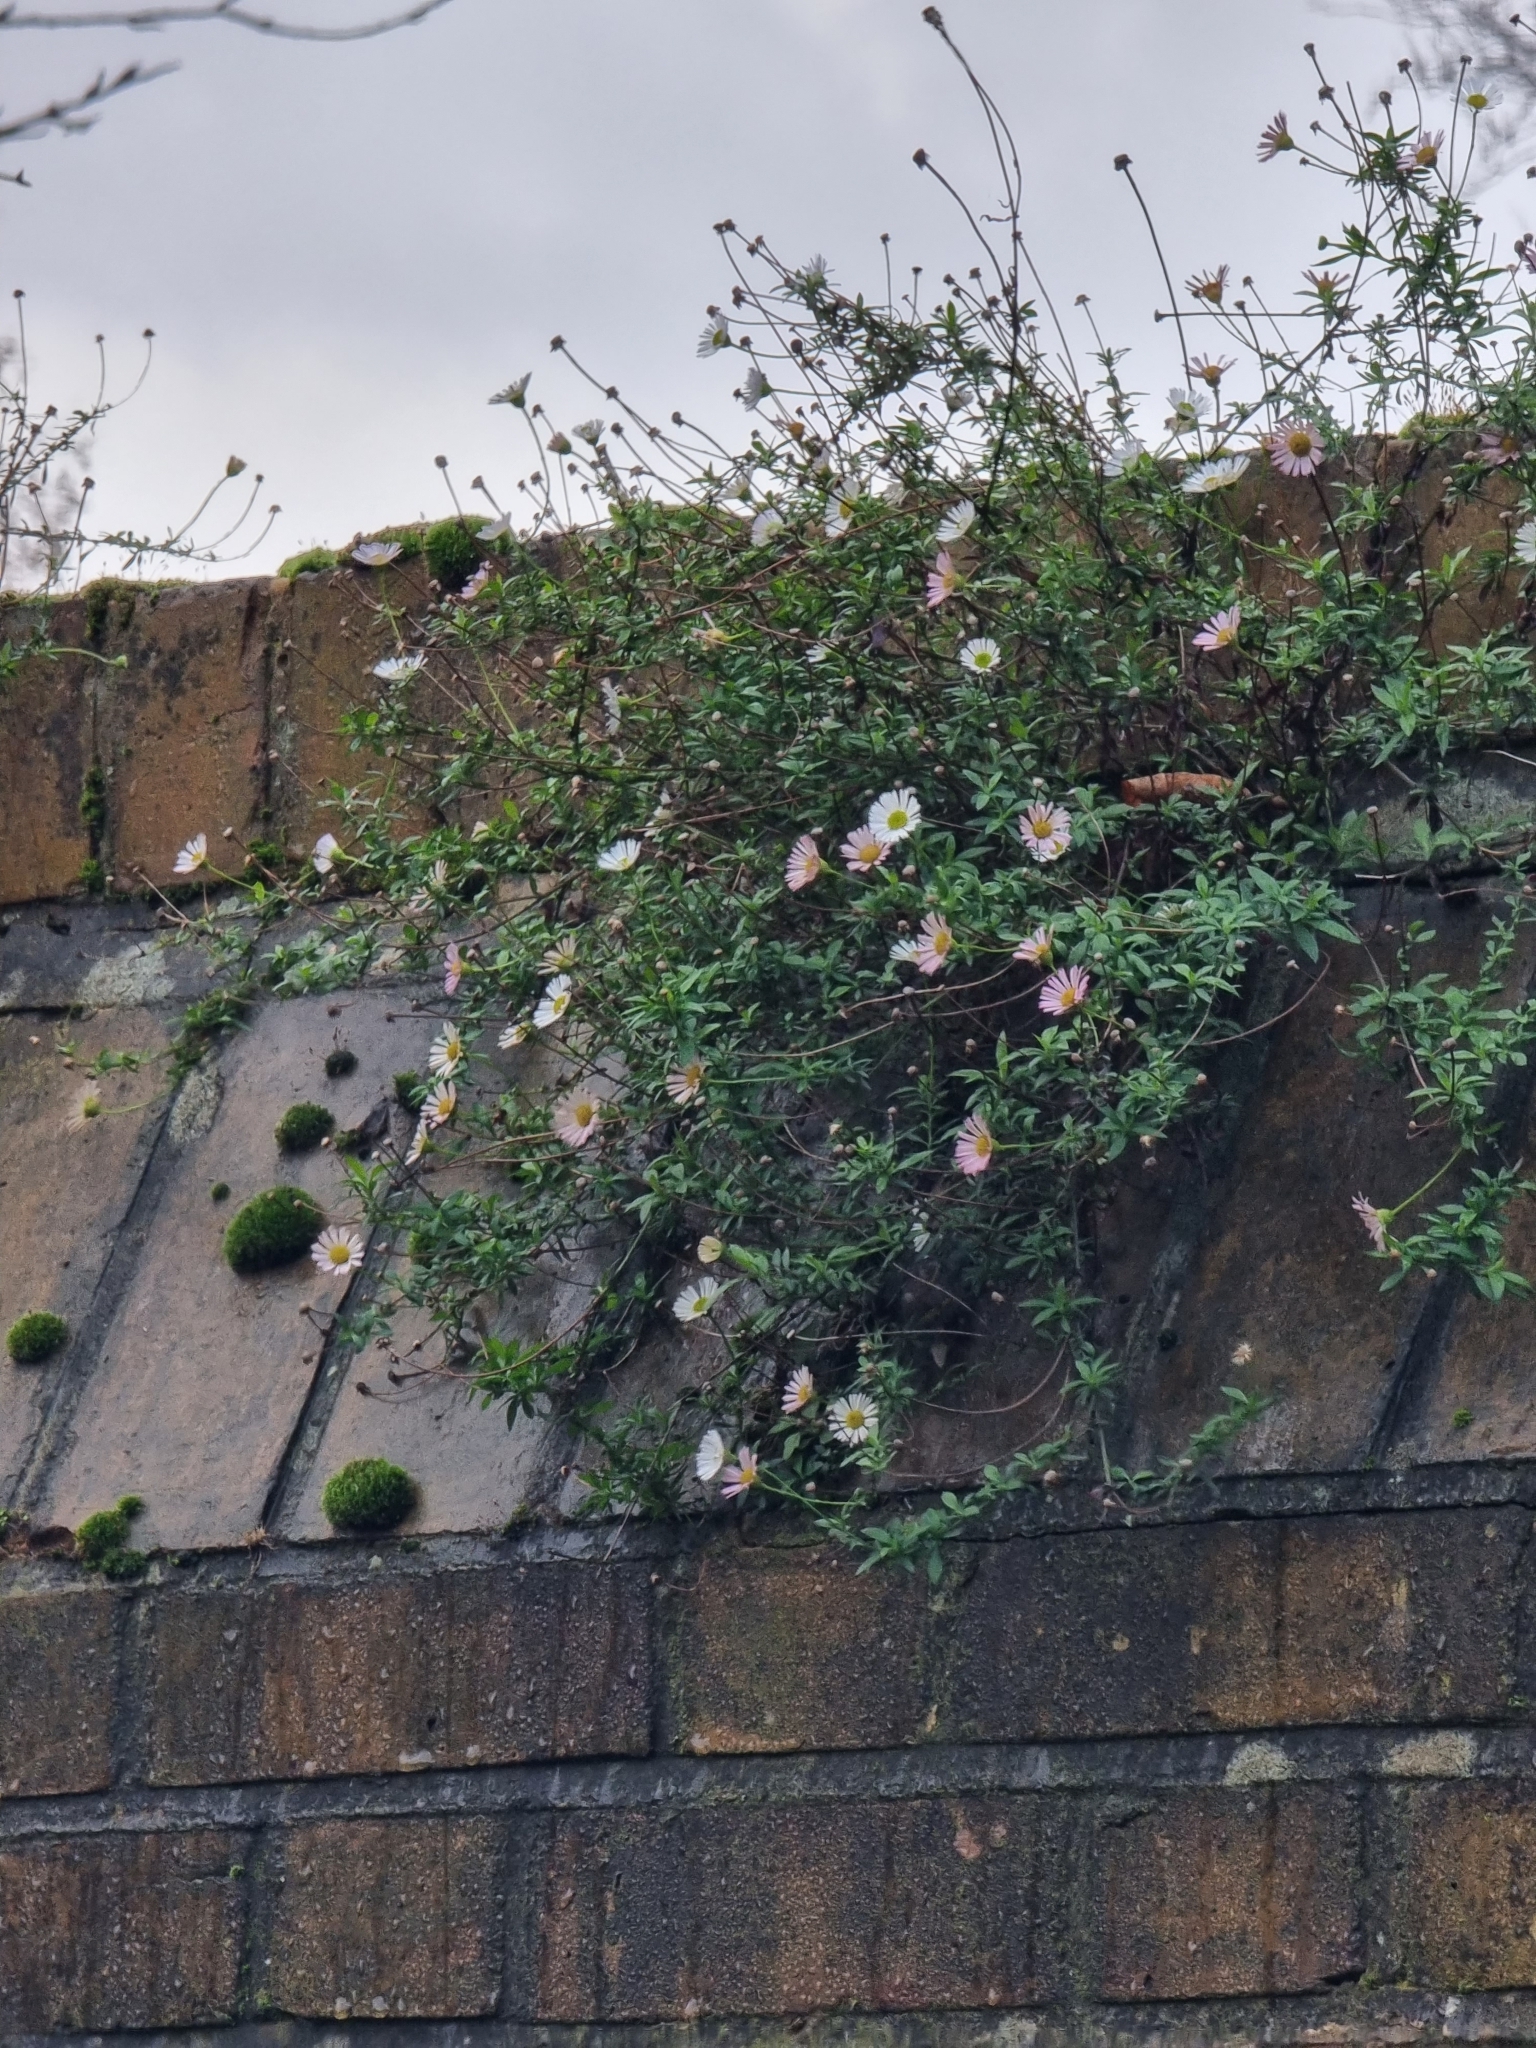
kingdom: Plantae
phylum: Tracheophyta
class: Magnoliopsida
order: Asterales
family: Asteraceae
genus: Erigeron
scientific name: Erigeron karvinskianus
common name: Mexican fleabane
